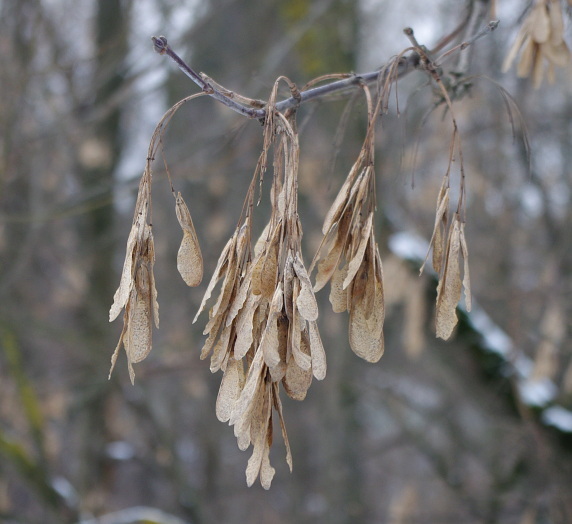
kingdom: Plantae
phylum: Tracheophyta
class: Magnoliopsida
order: Sapindales
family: Sapindaceae
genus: Acer
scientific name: Acer negundo
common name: Ashleaf maple
